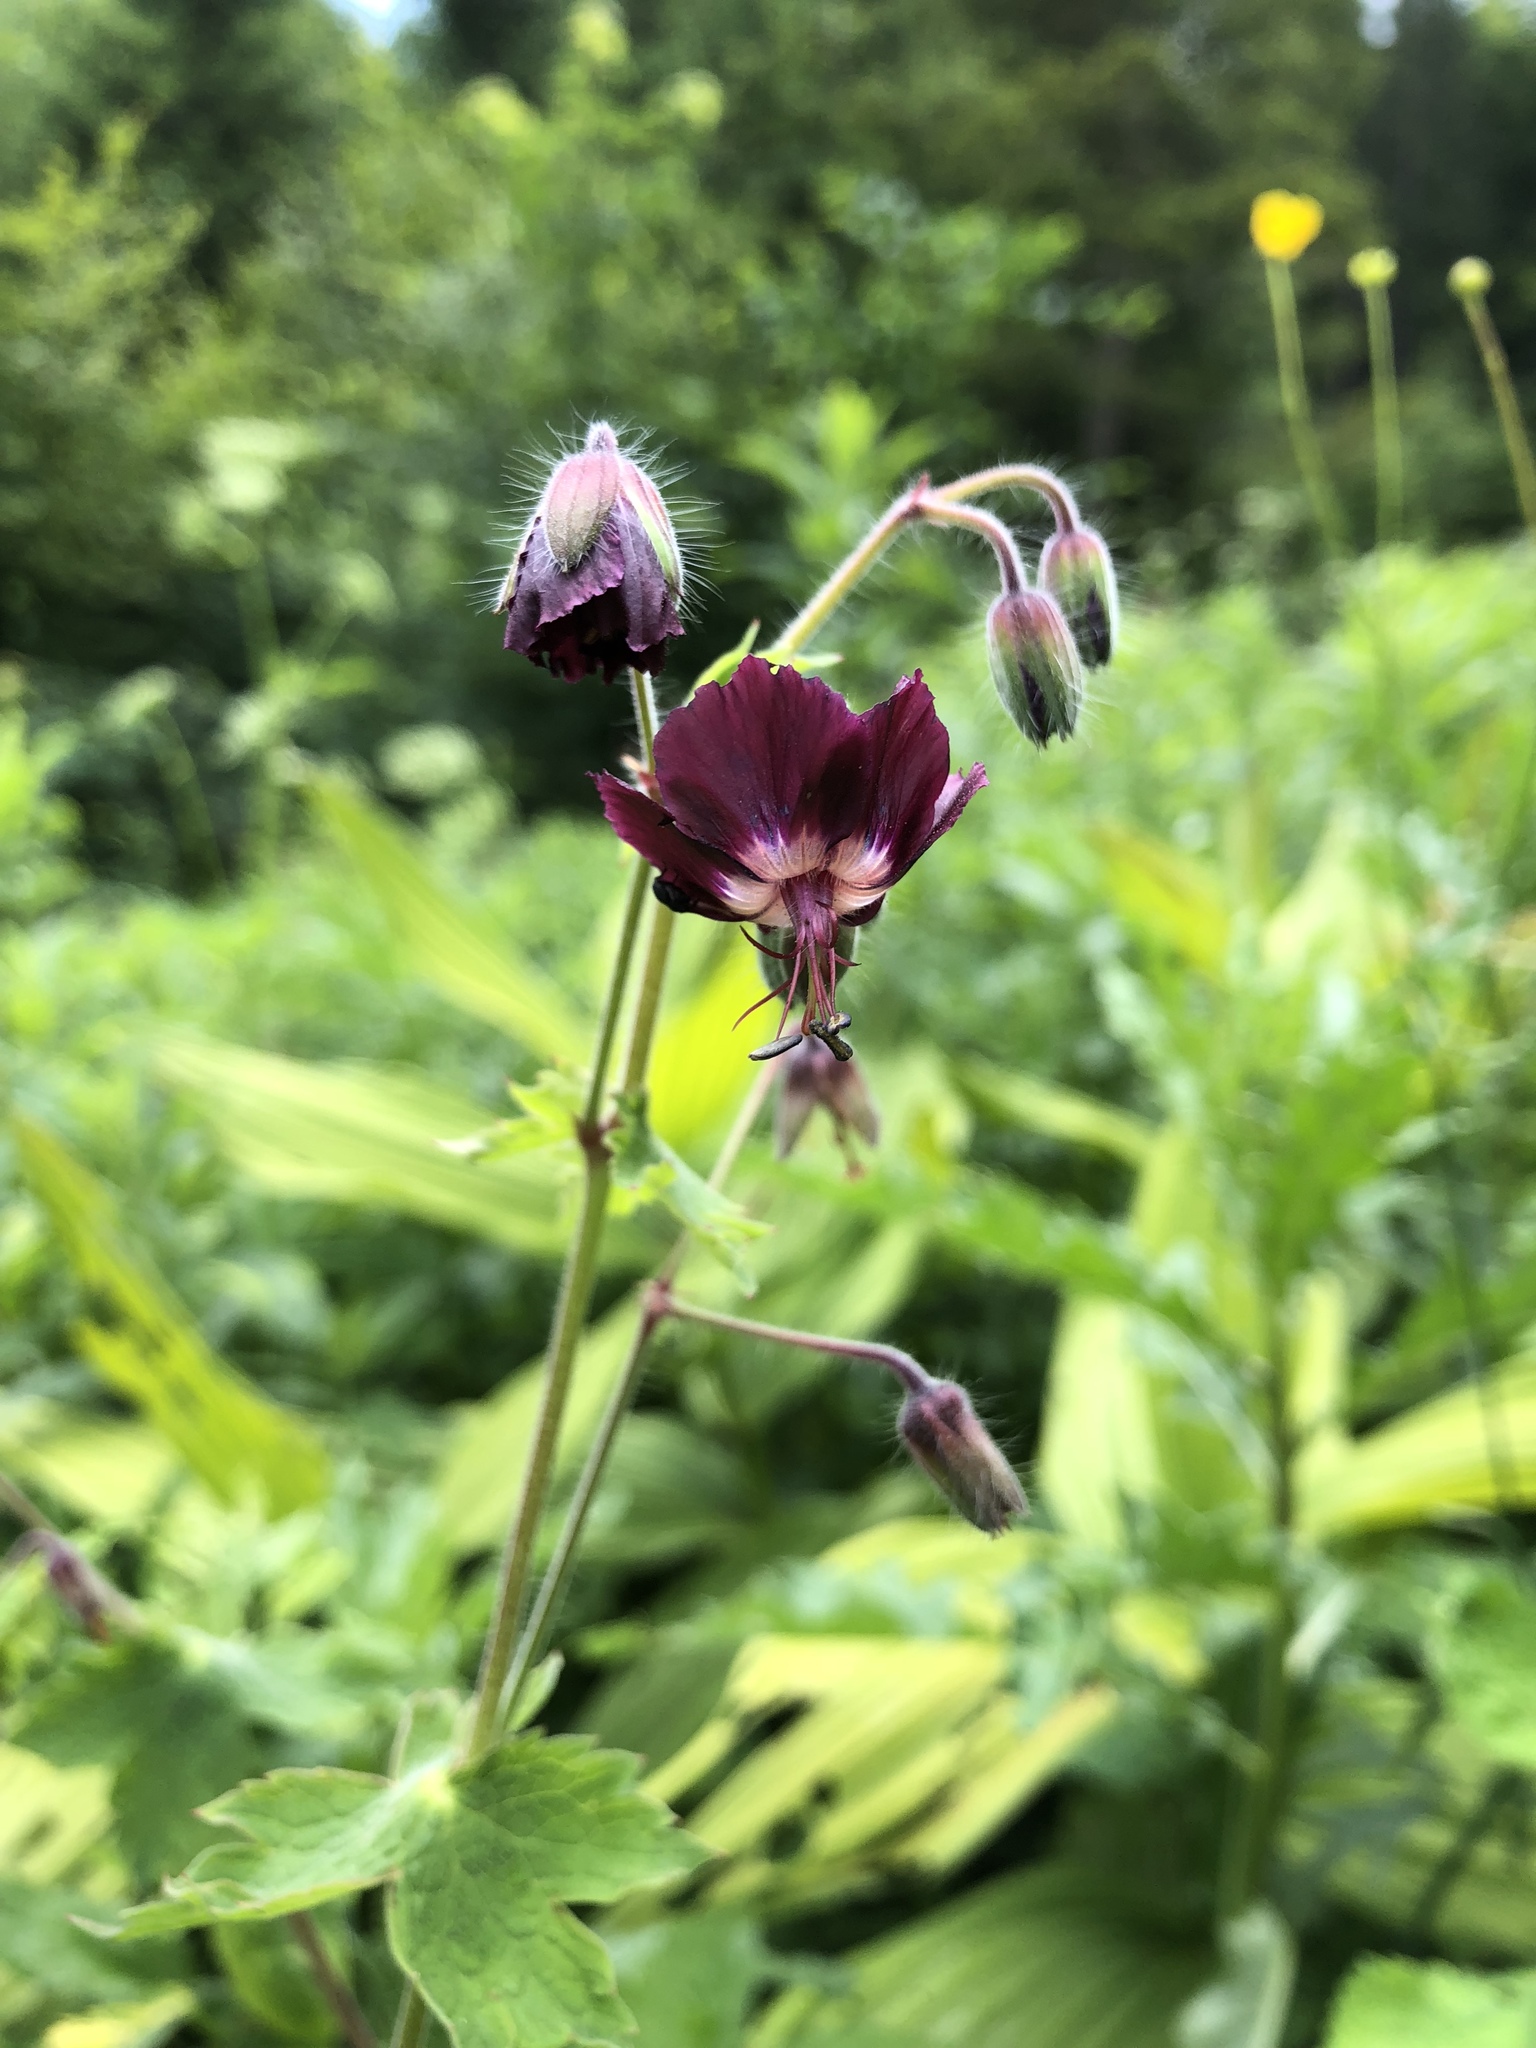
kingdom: Plantae
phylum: Tracheophyta
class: Magnoliopsida
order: Geraniales
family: Geraniaceae
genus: Geranium
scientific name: Geranium phaeum
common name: Dusky crane's-bill
